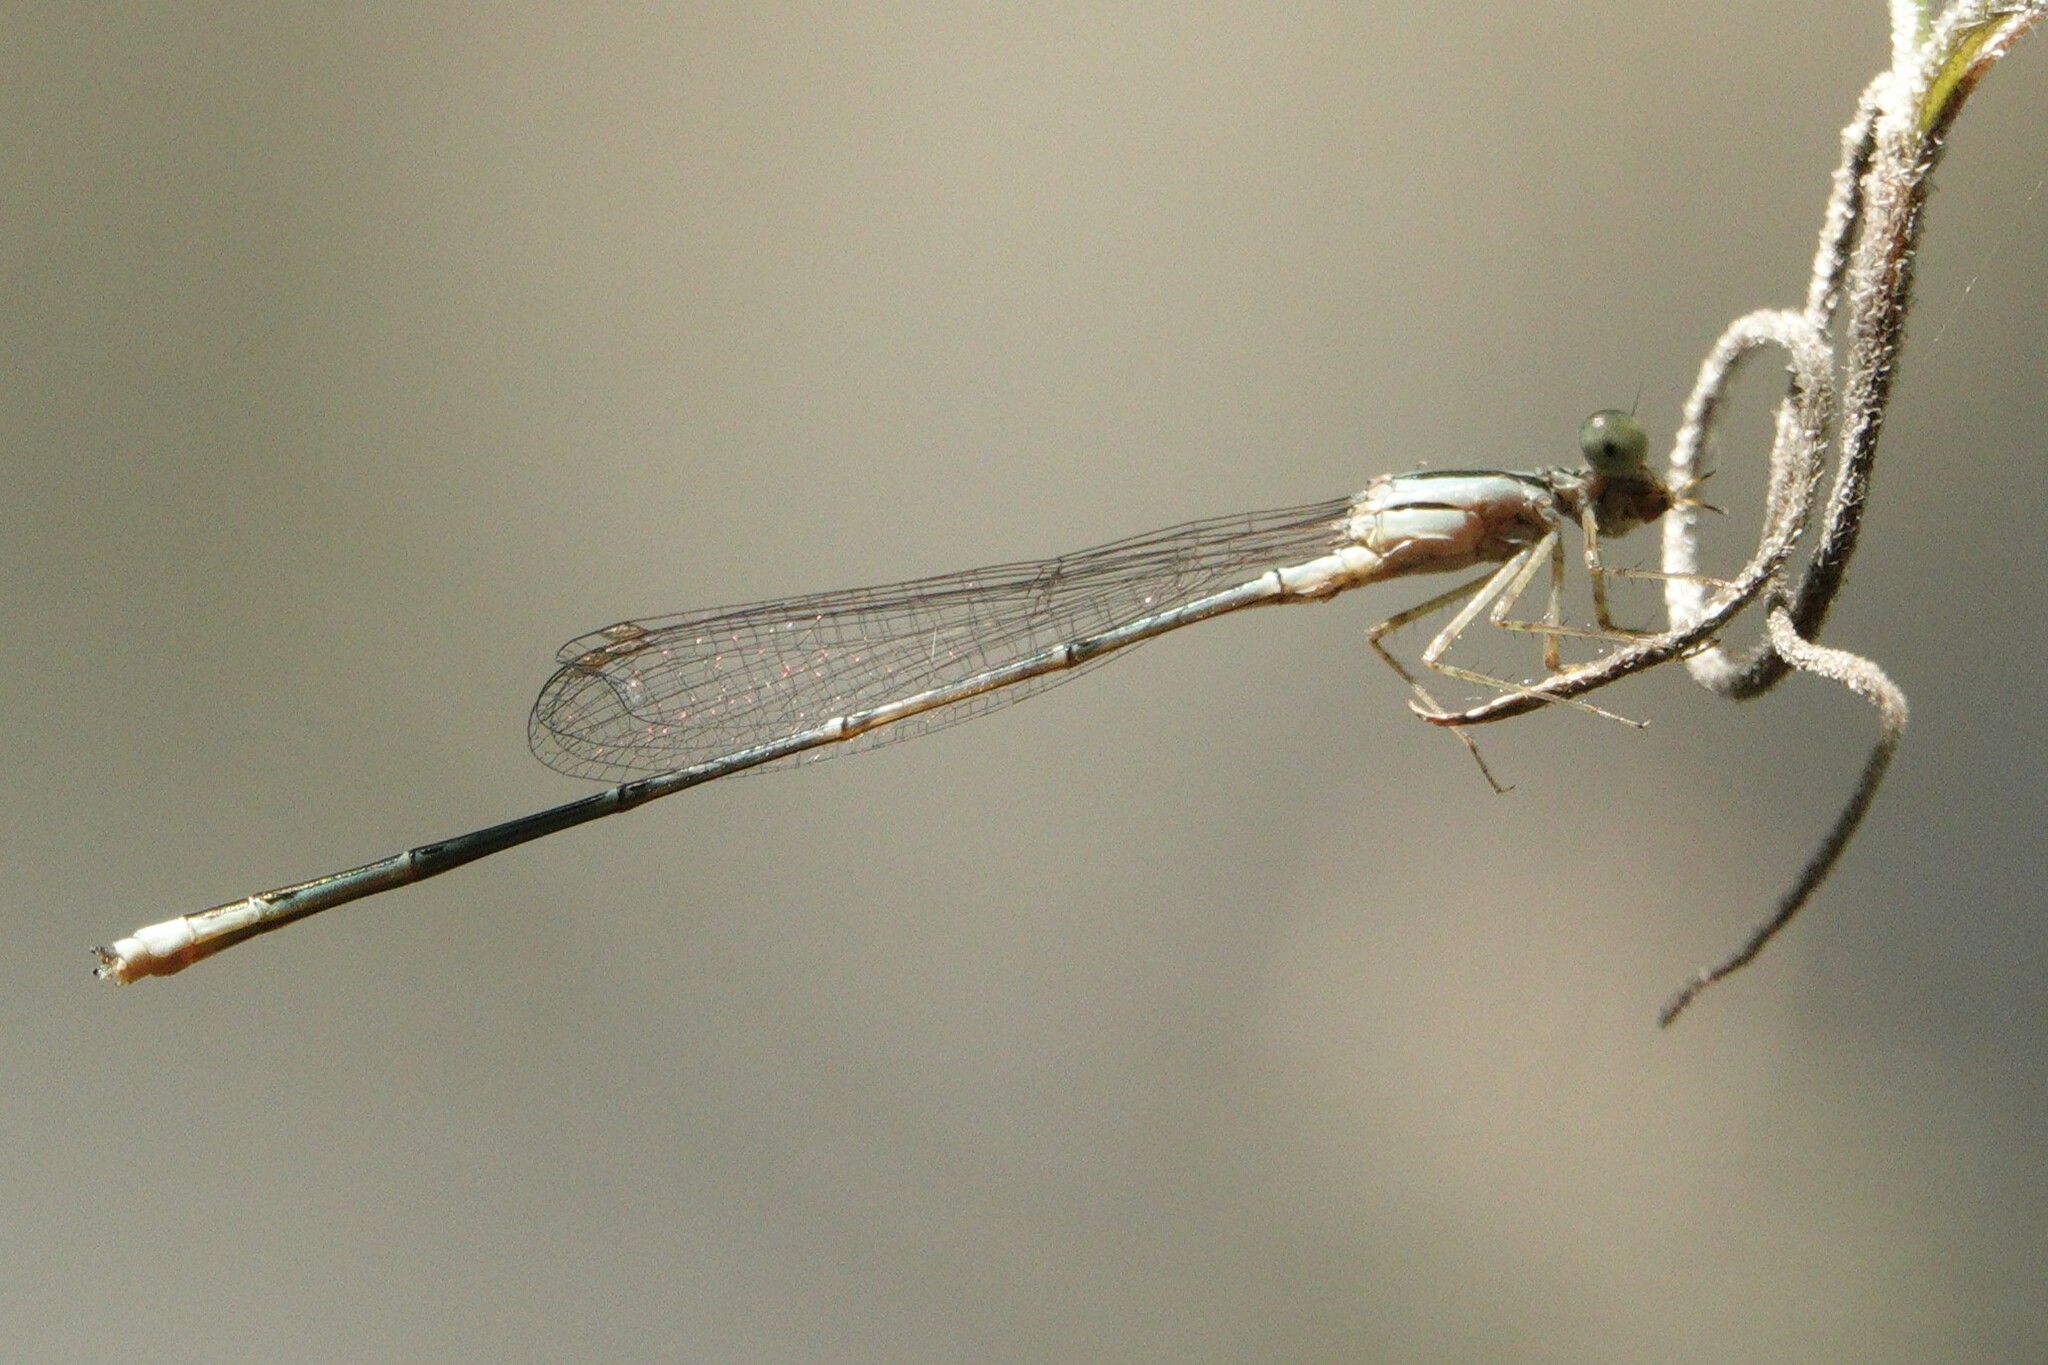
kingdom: Animalia
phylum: Arthropoda
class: Insecta
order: Odonata
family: Coenagrionidae
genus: Enallagma
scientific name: Enallagma pollutum
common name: Florida bluet
